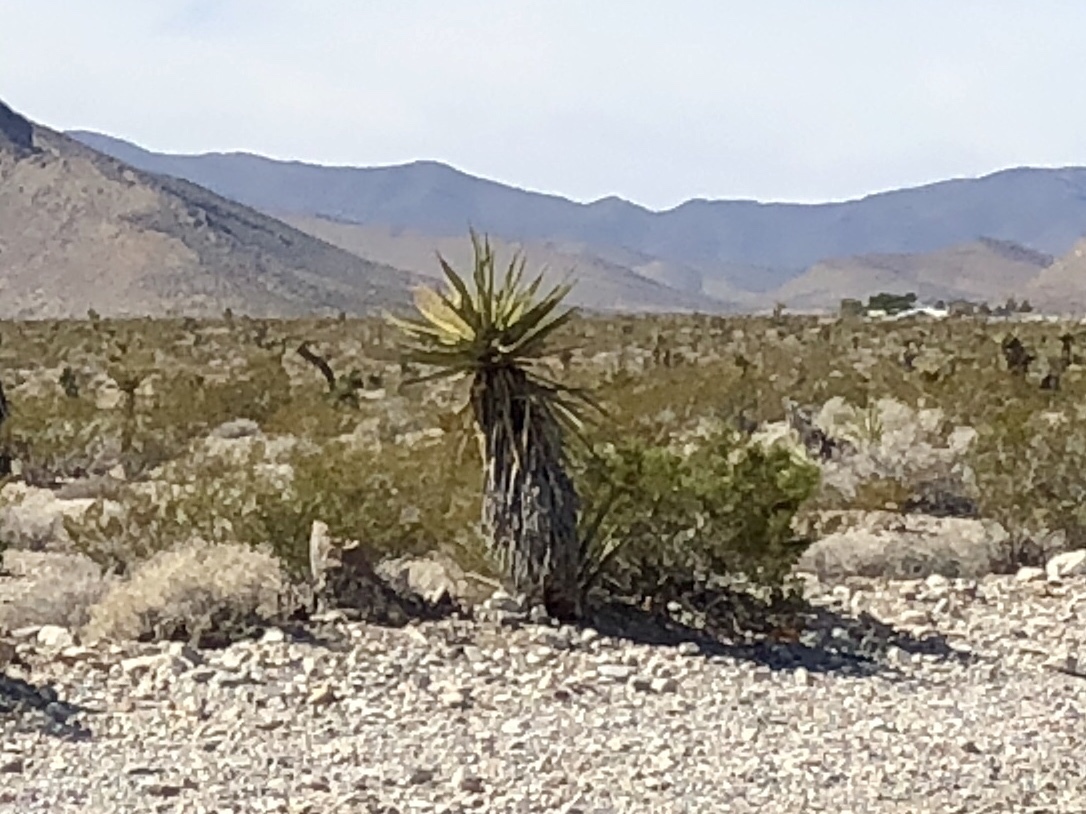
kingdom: Plantae
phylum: Tracheophyta
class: Liliopsida
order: Asparagales
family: Asparagaceae
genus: Yucca
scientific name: Yucca schidigera
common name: Mojave yucca
